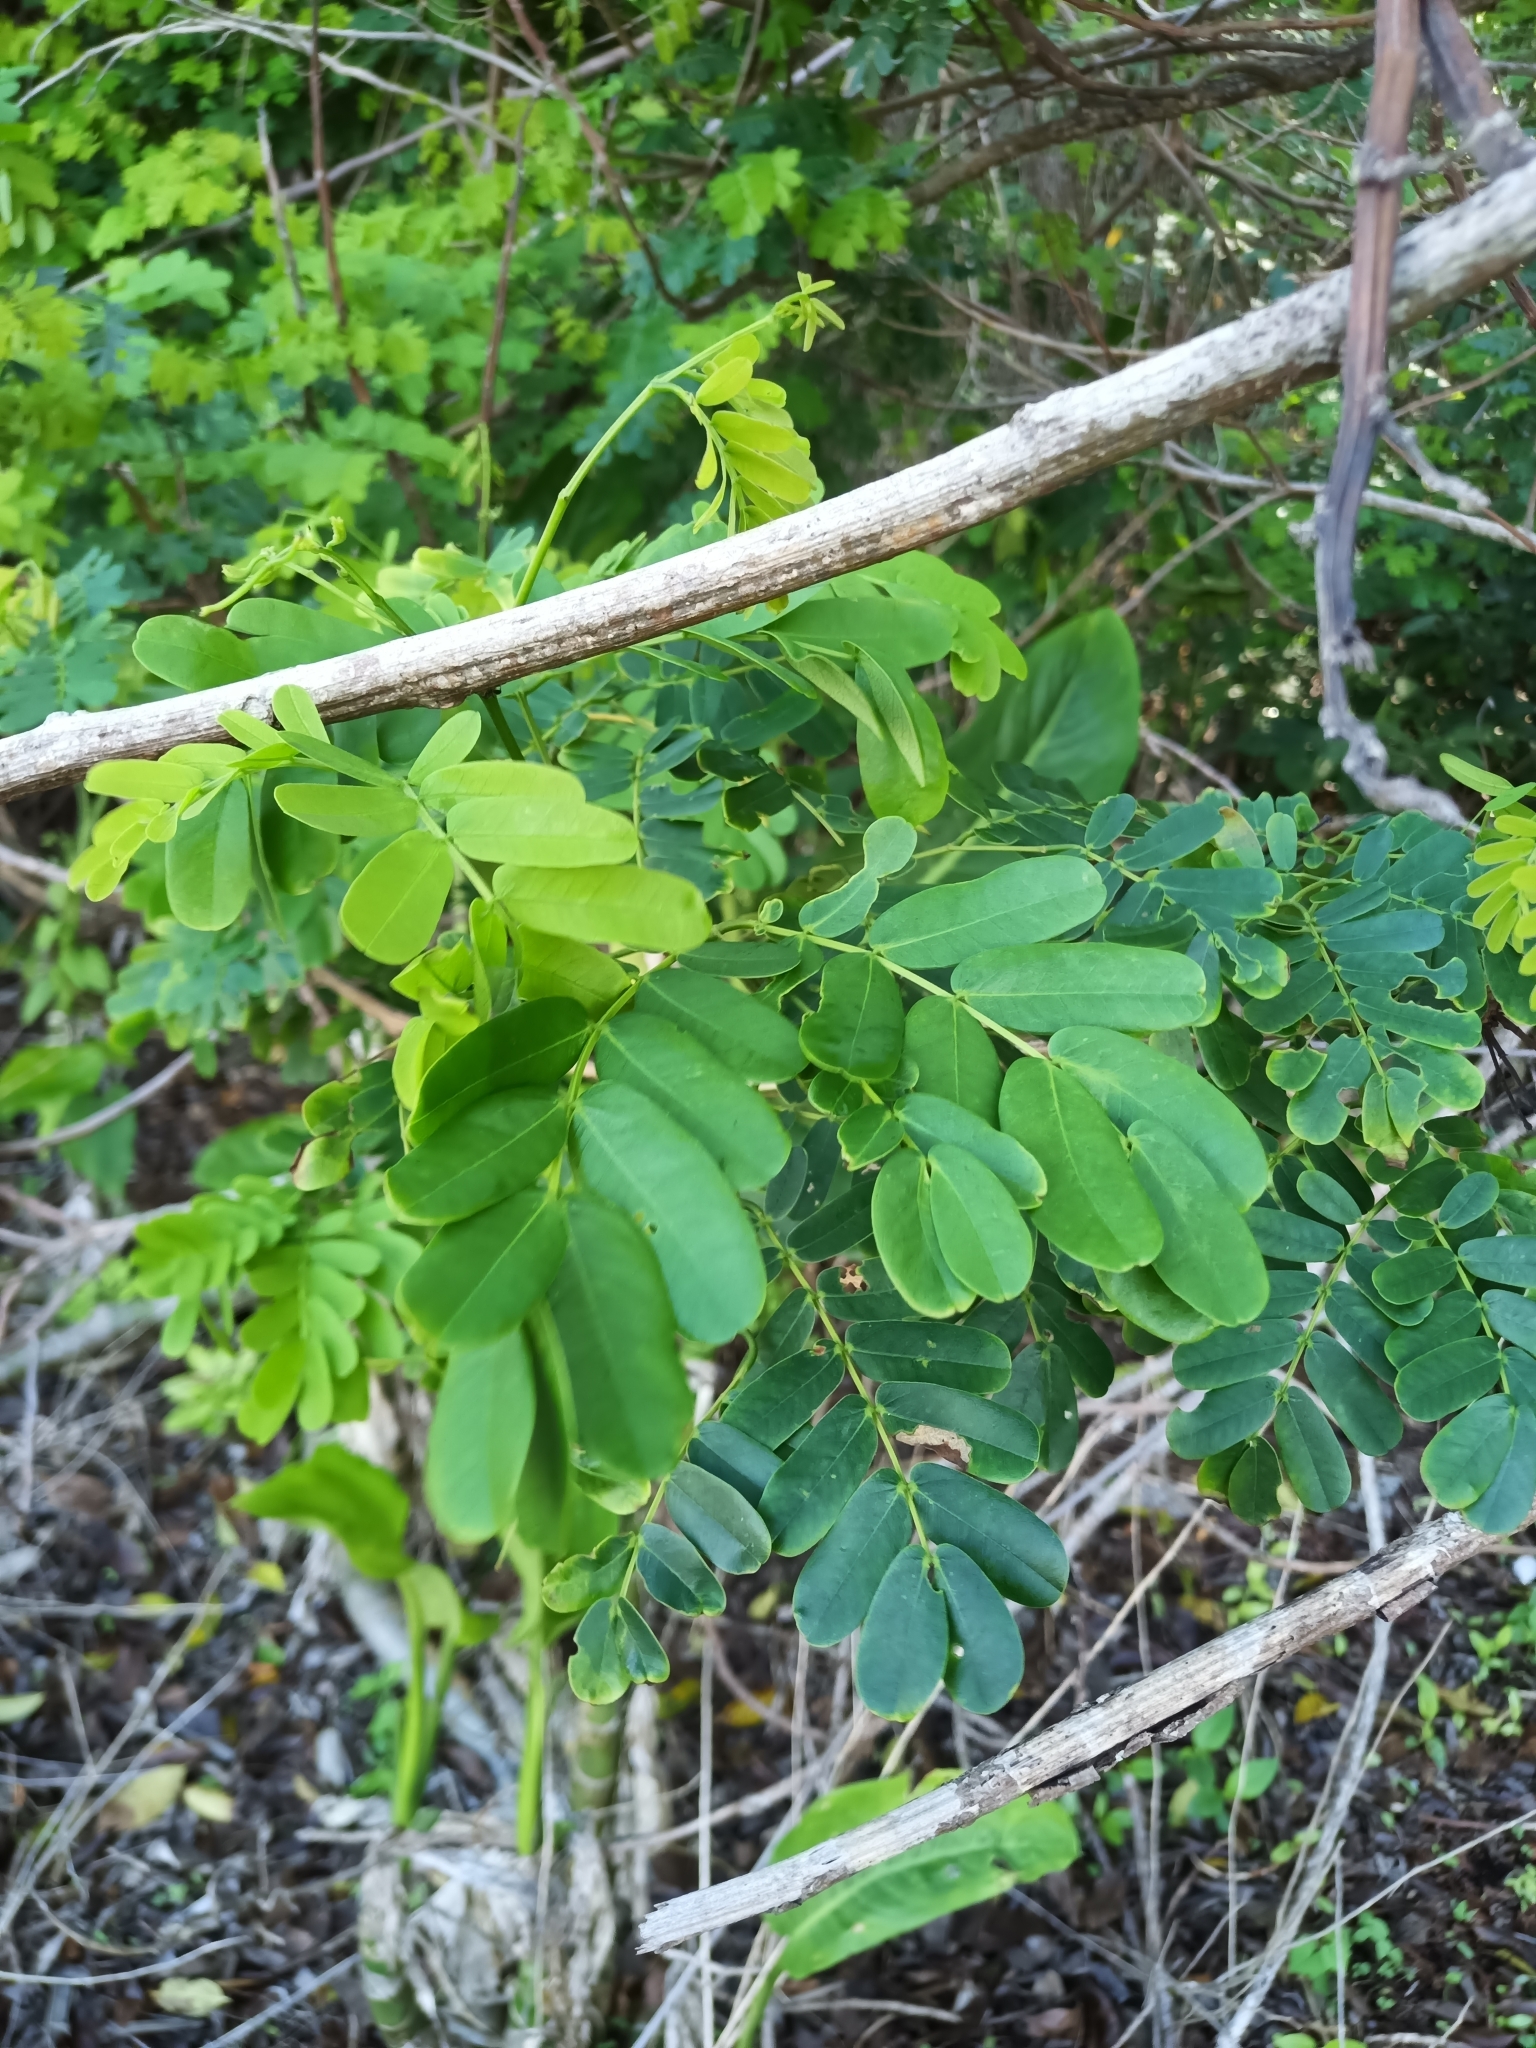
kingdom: Plantae
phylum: Tracheophyta
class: Magnoliopsida
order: Fabales
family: Fabaceae
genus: Entada
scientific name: Entada polystachya
